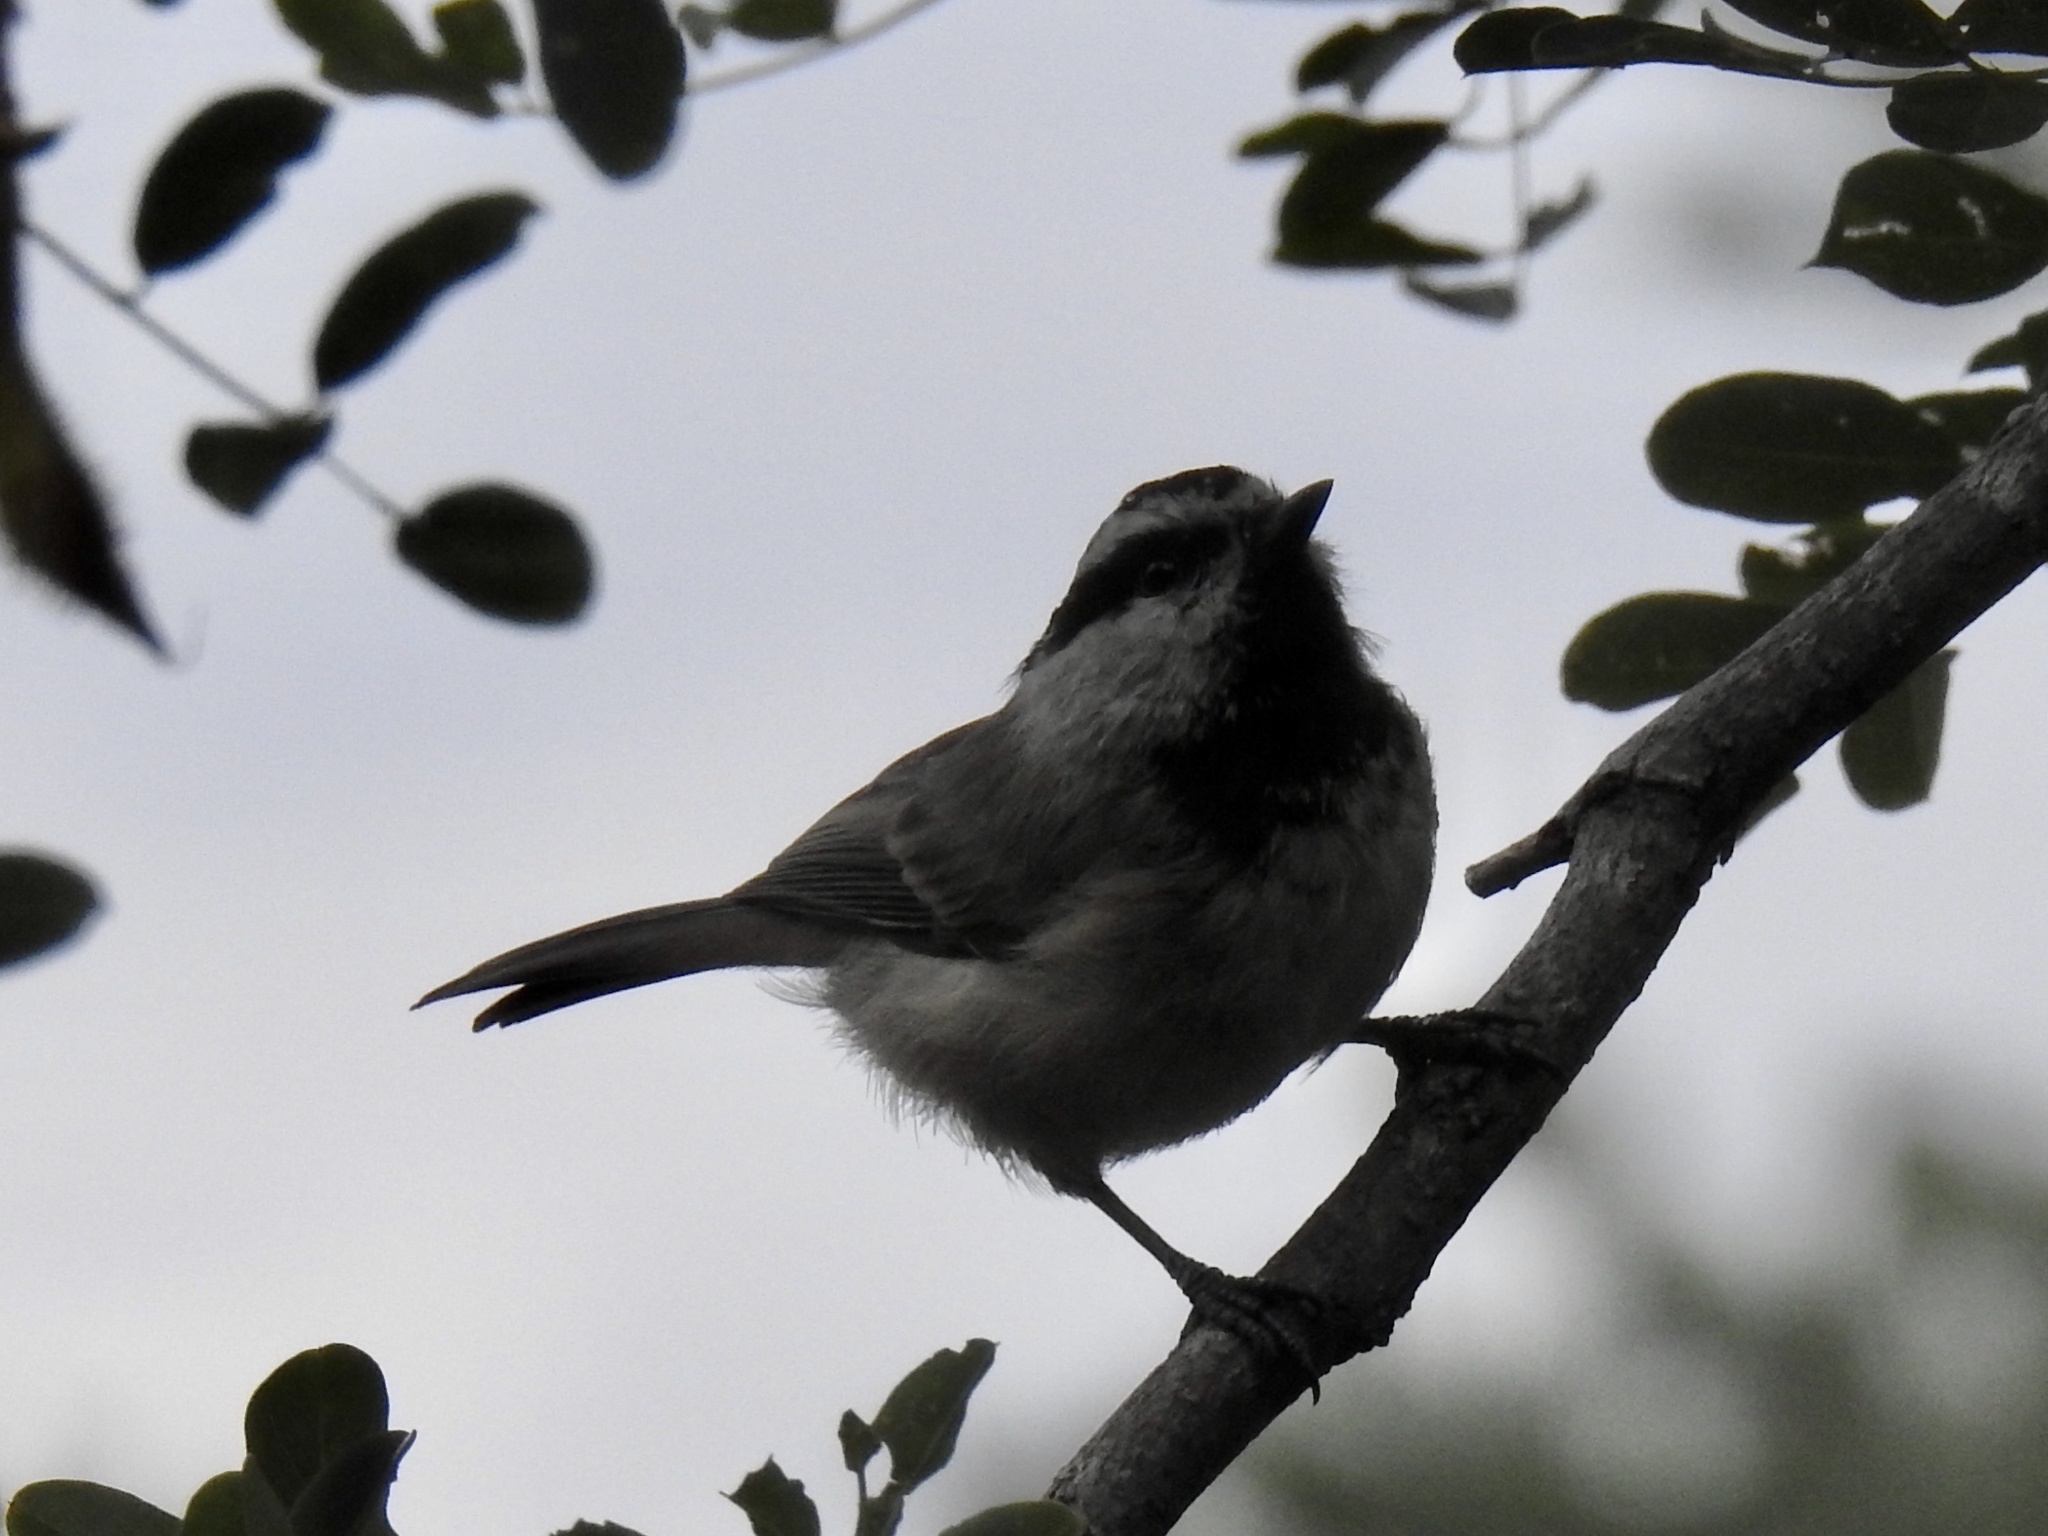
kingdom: Animalia
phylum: Chordata
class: Aves
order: Passeriformes
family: Paridae
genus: Poecile
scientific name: Poecile gambeli
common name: Mountain chickadee
